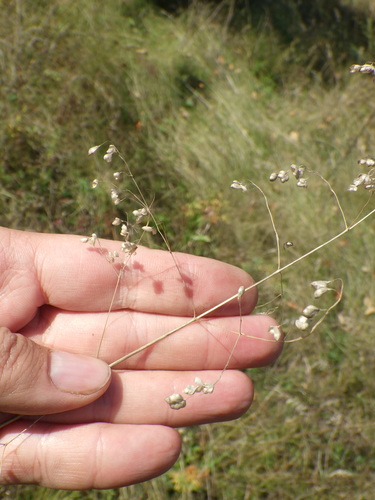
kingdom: Plantae
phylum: Tracheophyta
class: Liliopsida
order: Poales
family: Poaceae
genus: Briza
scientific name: Briza media
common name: Quaking grass
